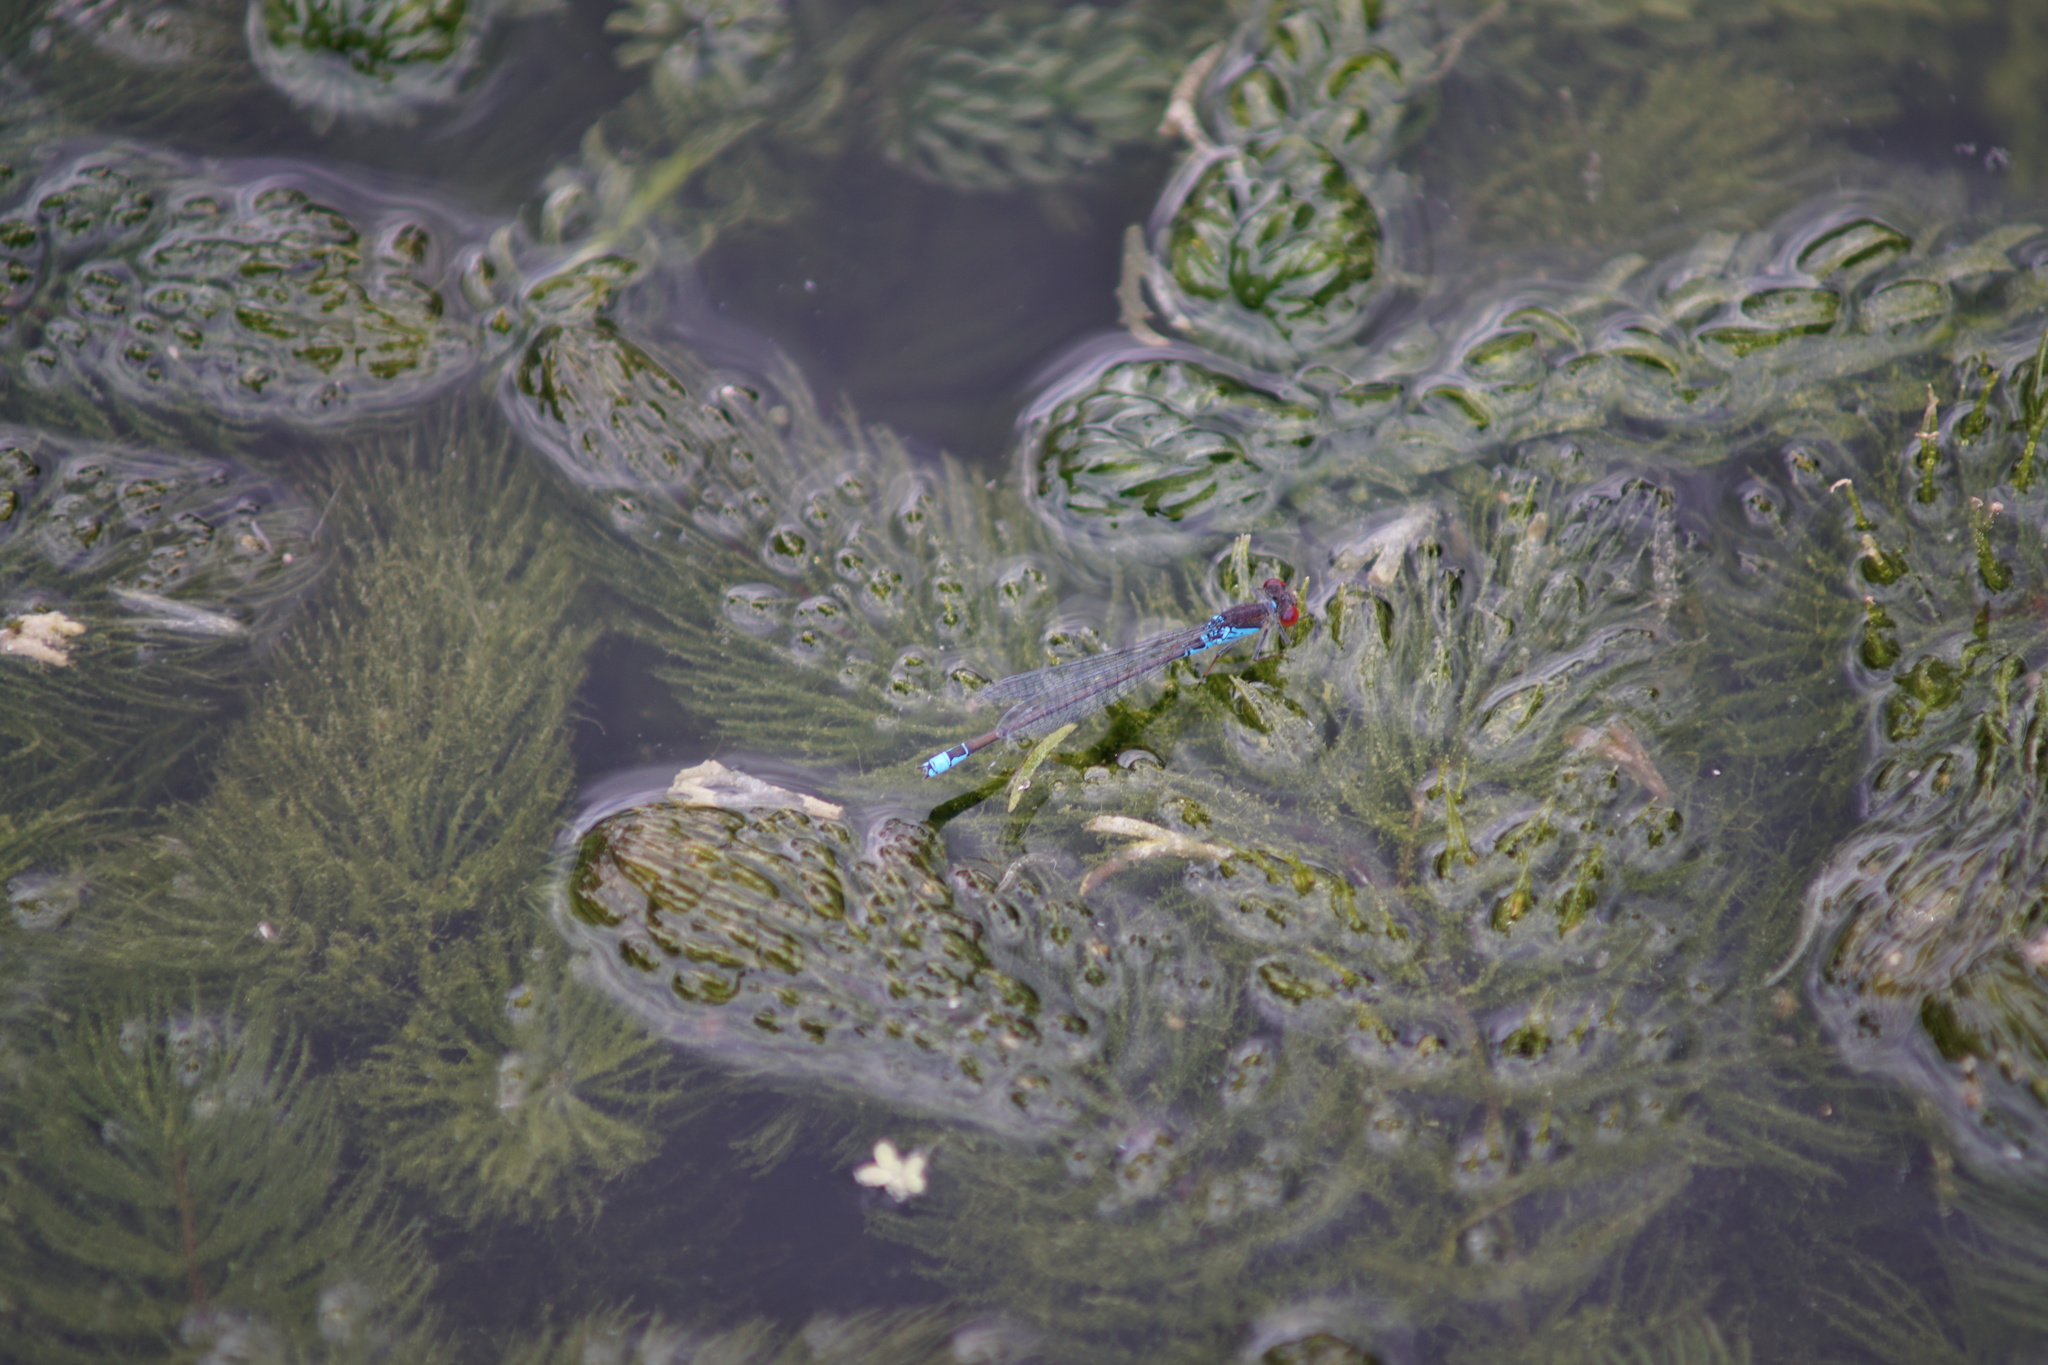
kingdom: Animalia
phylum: Arthropoda
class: Insecta
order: Odonata
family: Coenagrionidae
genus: Erythromma
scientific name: Erythromma viridulum
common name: Small red-eyed damselfly
